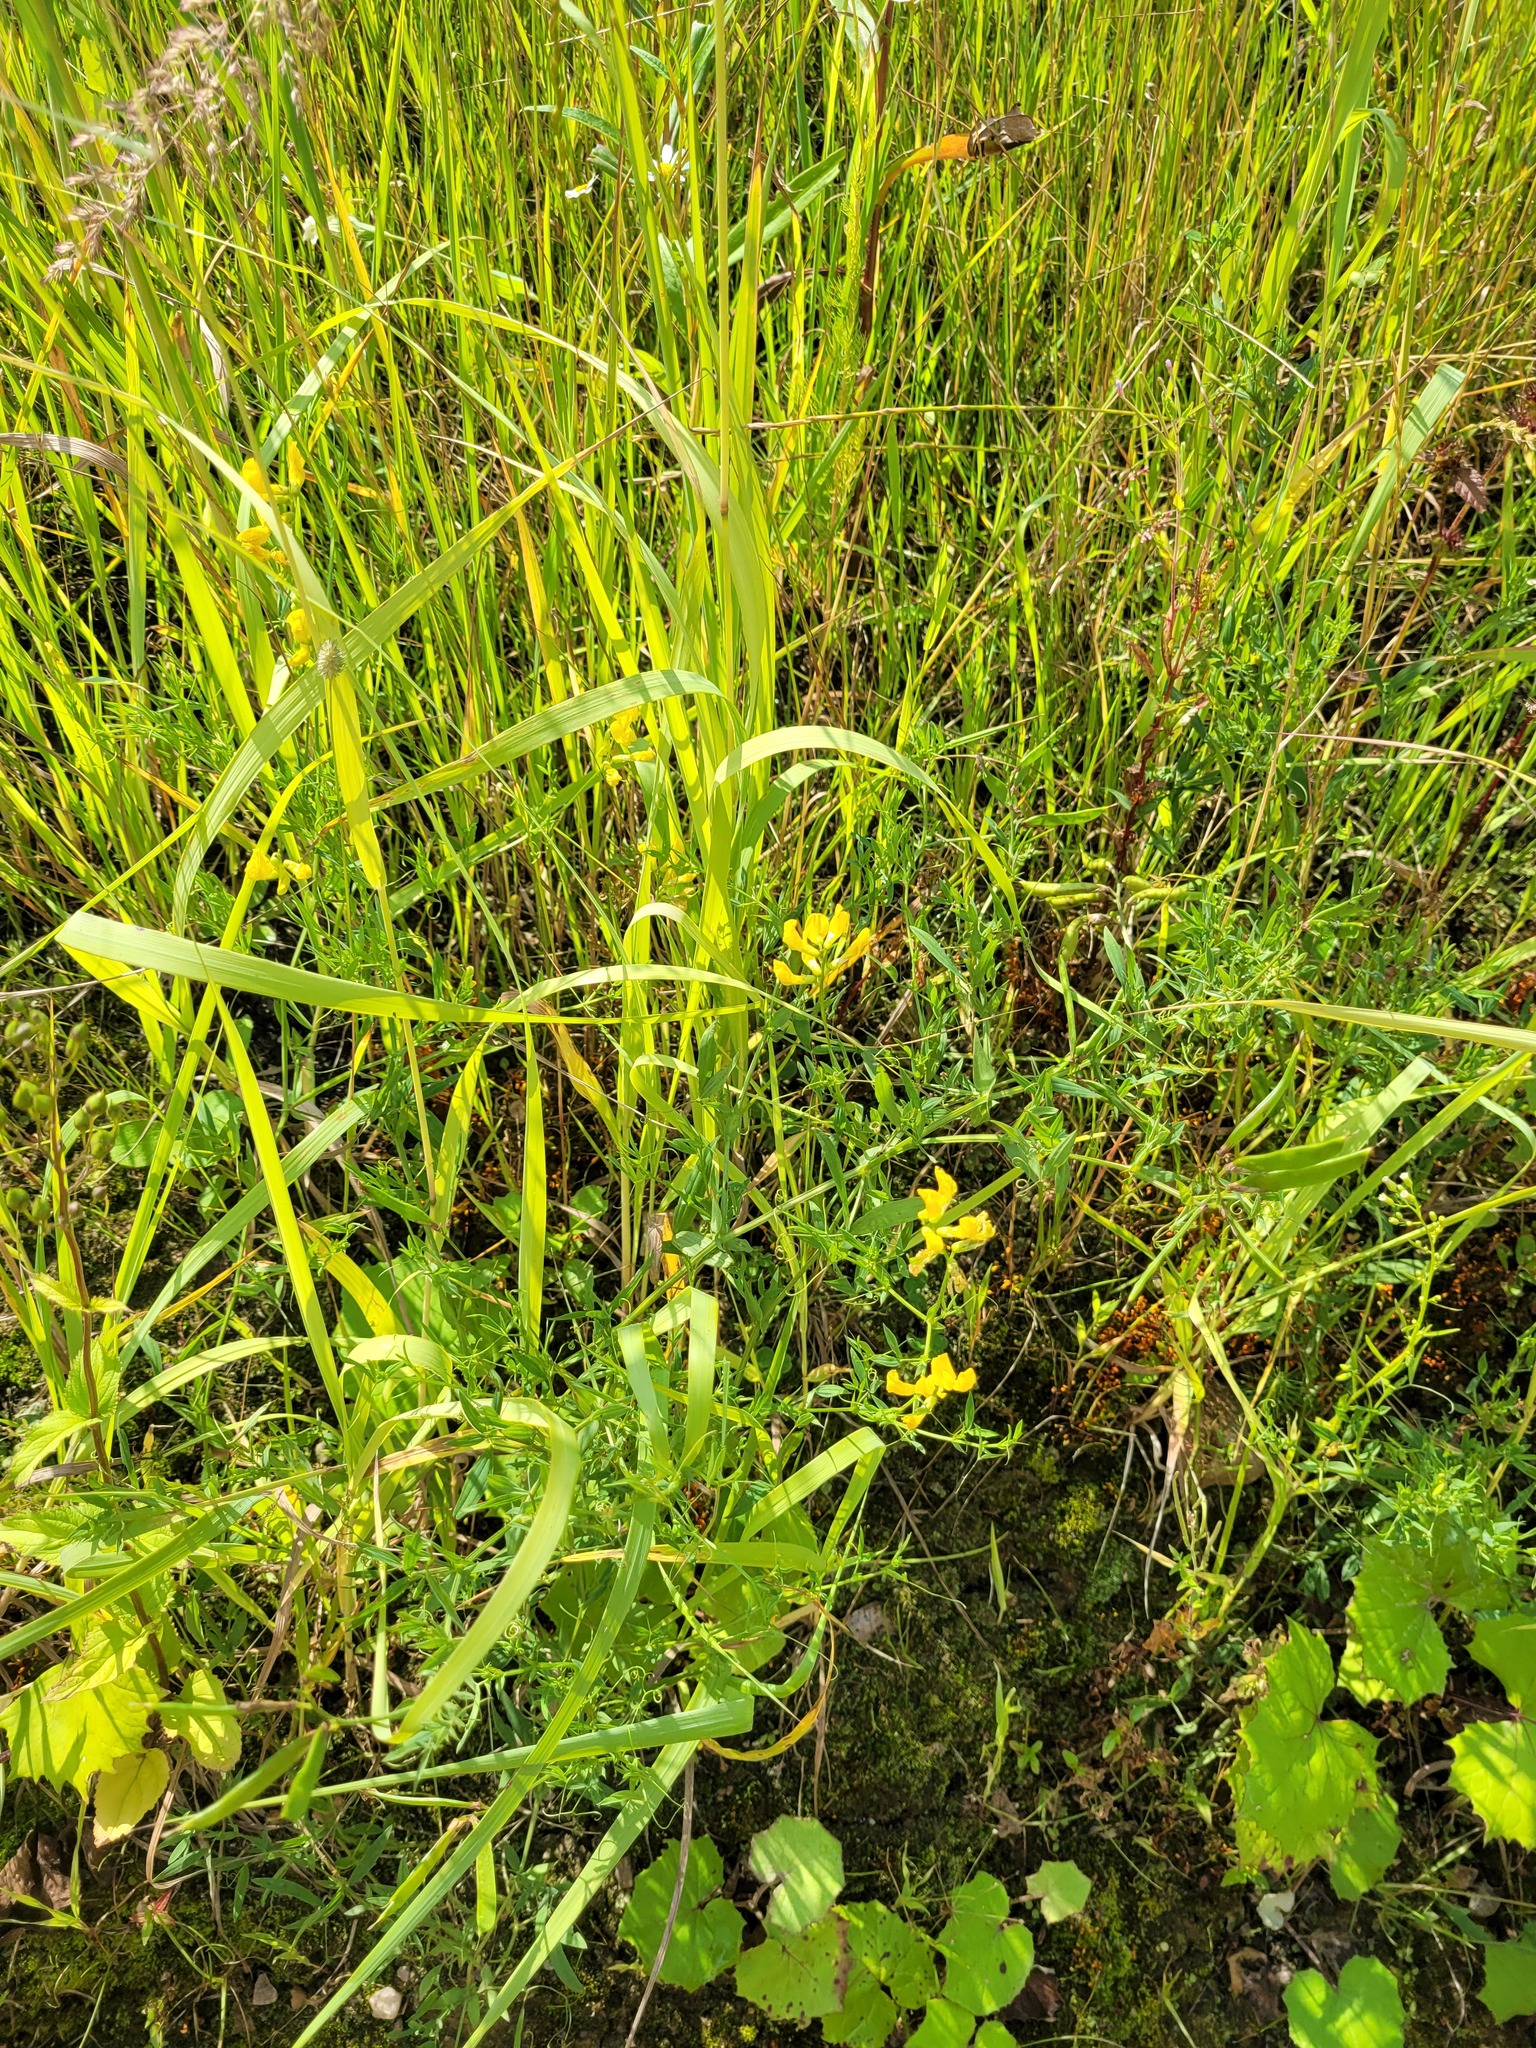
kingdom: Plantae
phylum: Tracheophyta
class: Magnoliopsida
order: Fabales
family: Fabaceae
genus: Lathyrus
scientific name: Lathyrus pratensis
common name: Meadow vetchling
